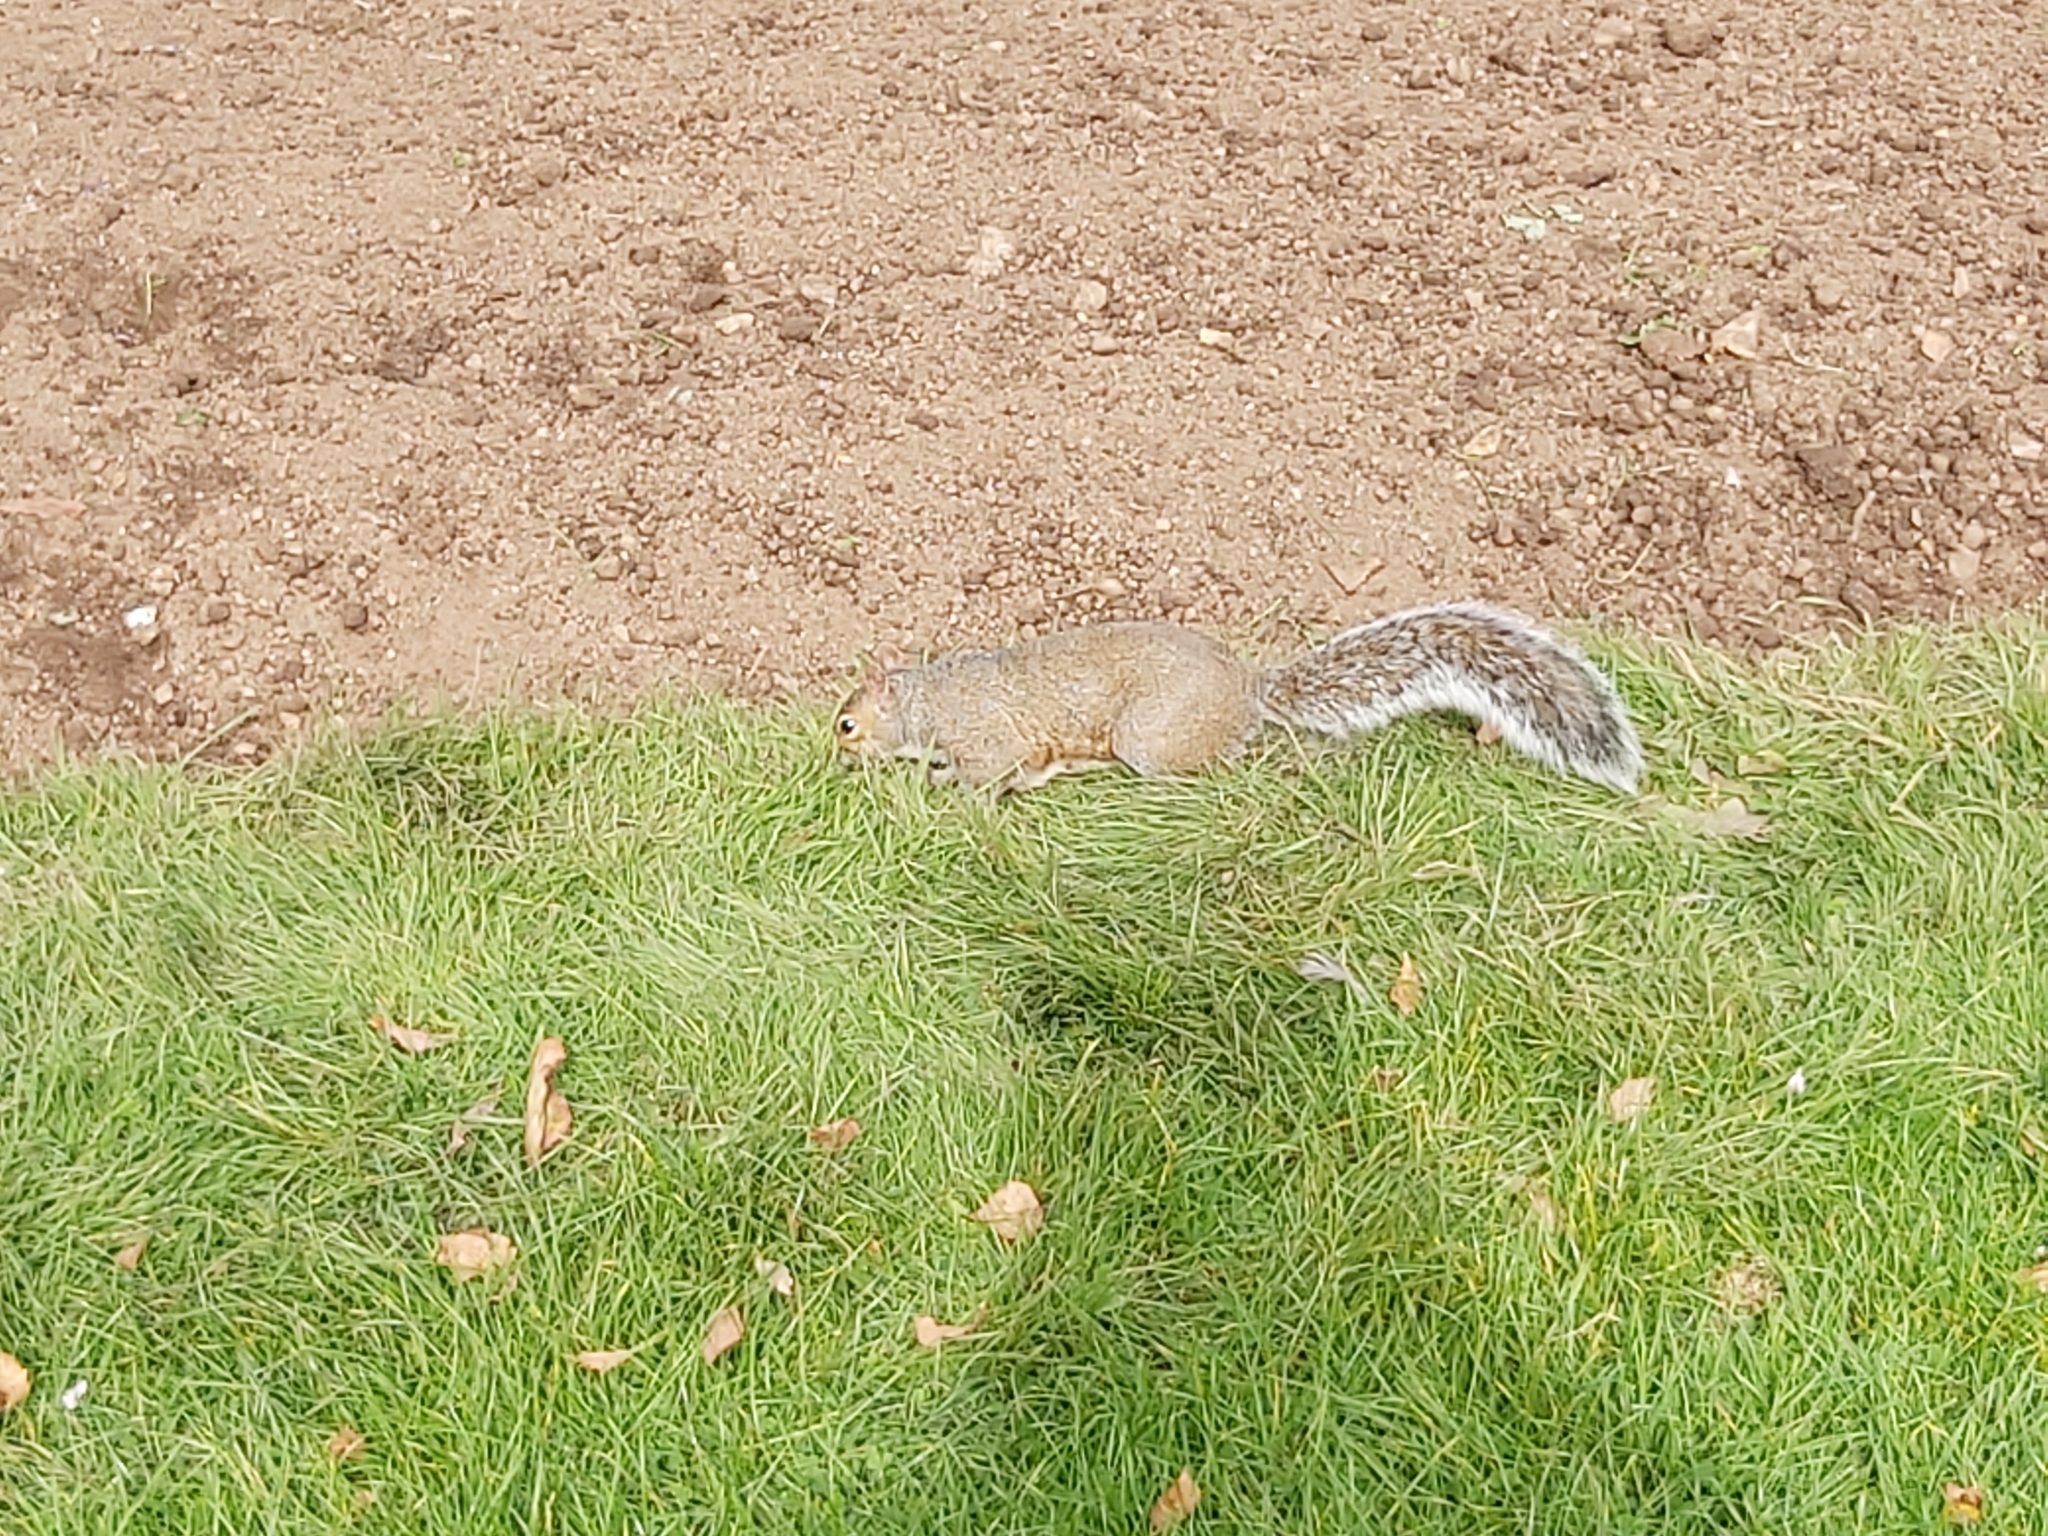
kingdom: Animalia
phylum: Chordata
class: Mammalia
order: Rodentia
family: Sciuridae
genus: Sciurus
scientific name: Sciurus carolinensis
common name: Eastern gray squirrel
